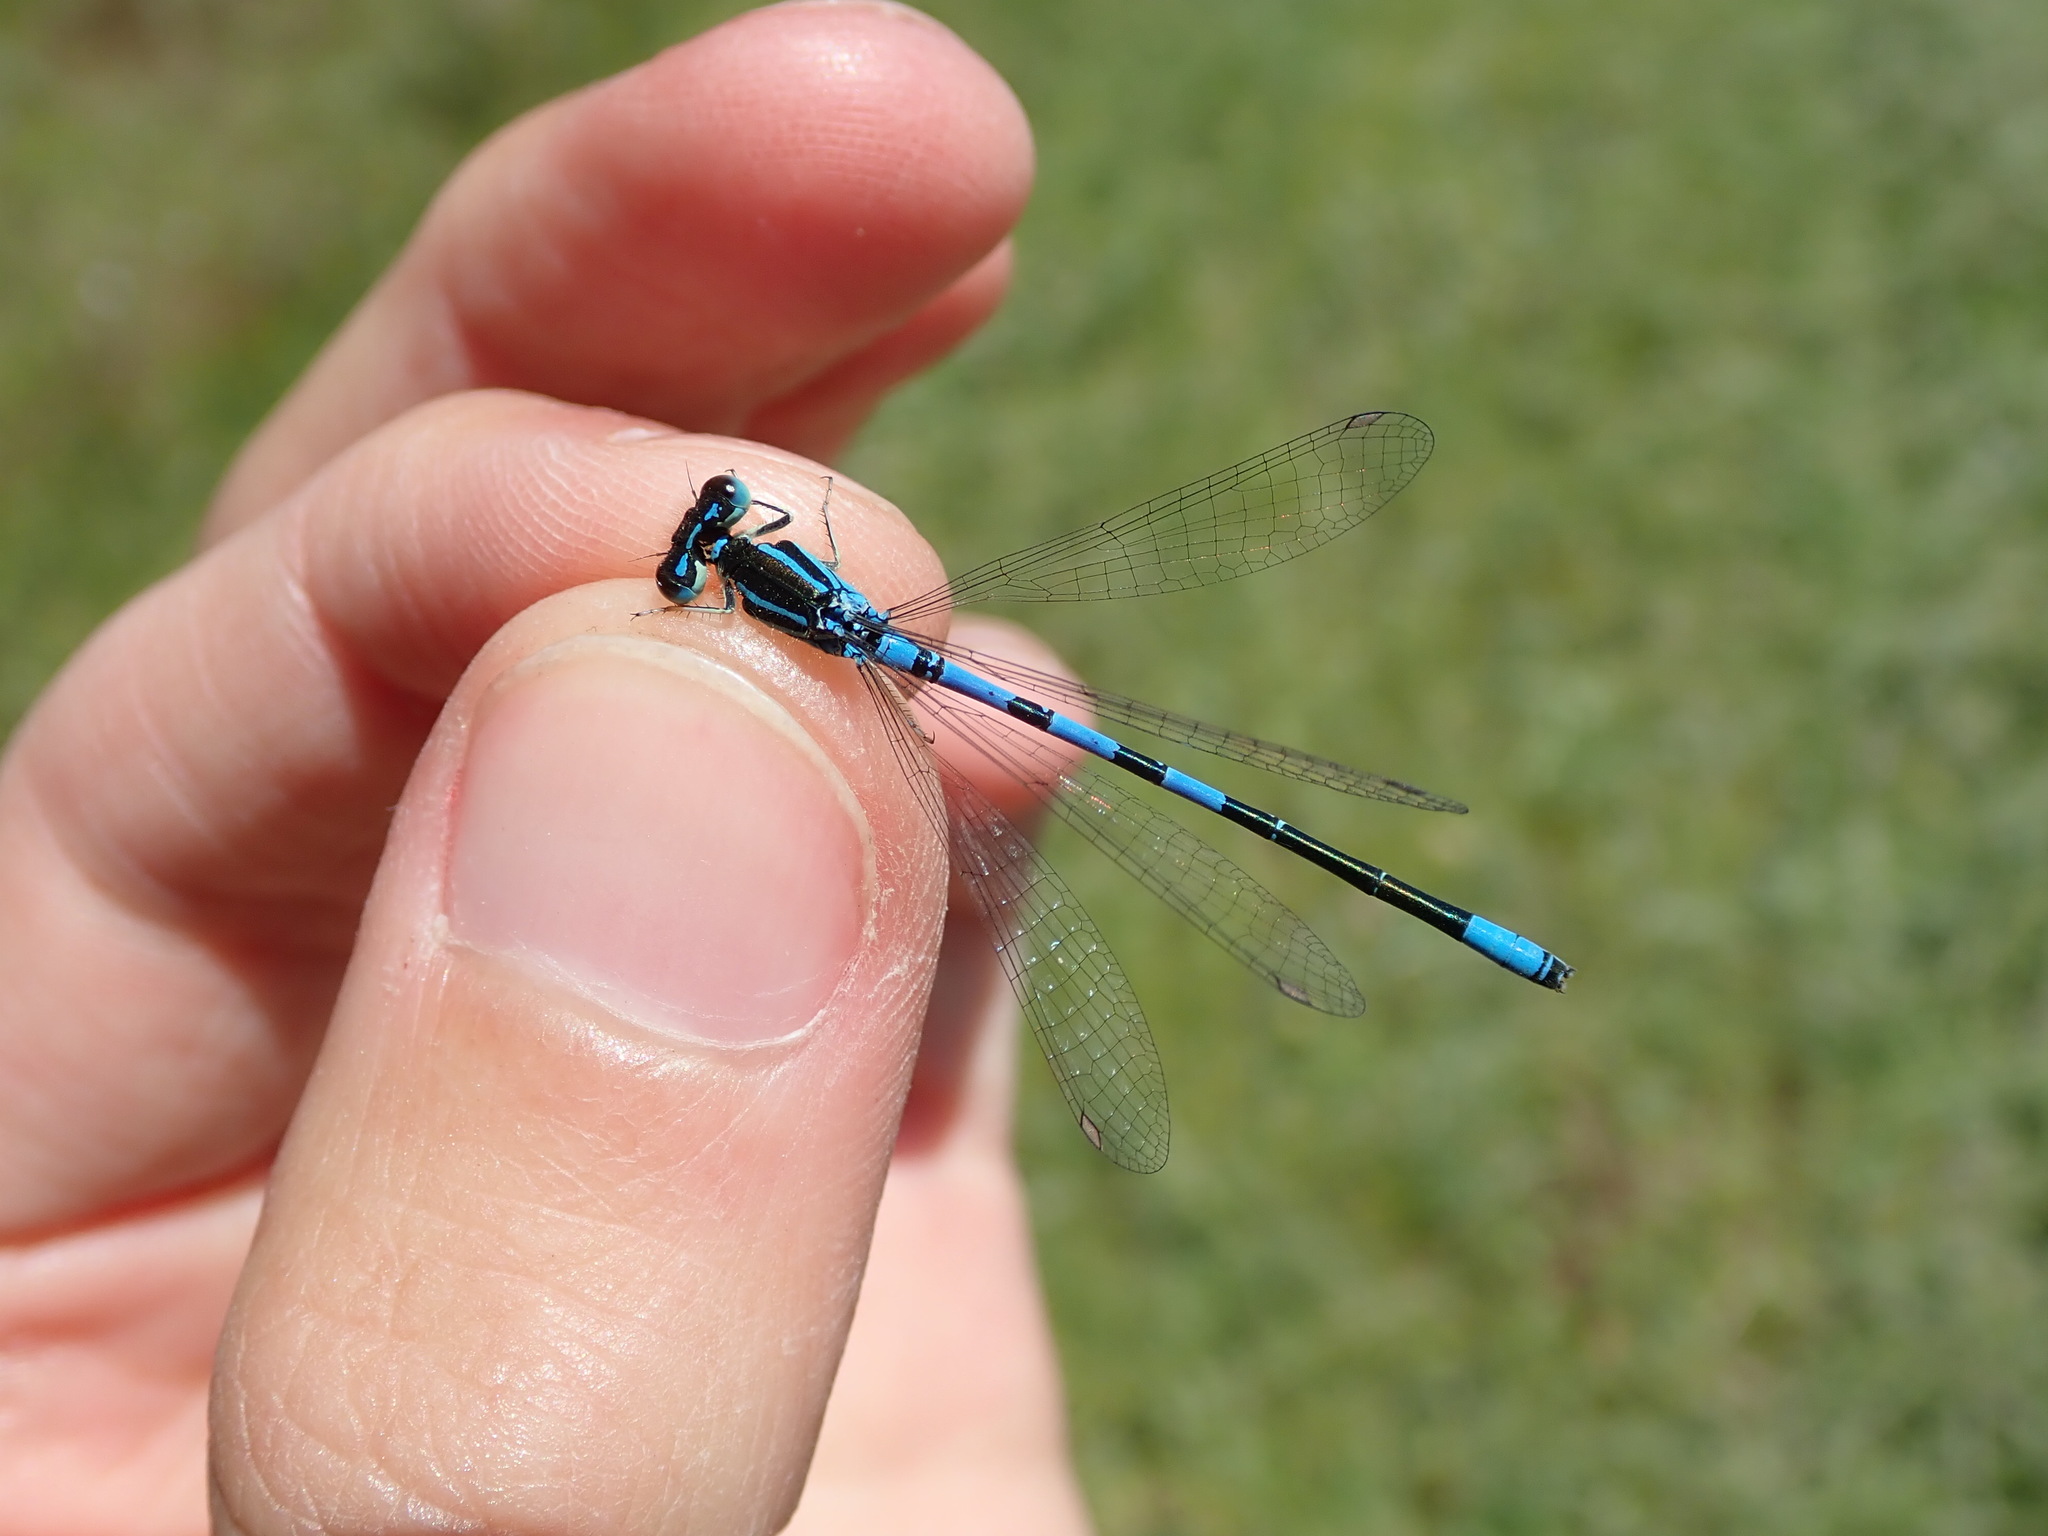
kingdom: Animalia
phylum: Arthropoda
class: Insecta
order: Odonata
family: Coenagrionidae
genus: Coenagrion
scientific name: Coenagrion scitulum
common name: Dainty bluet
